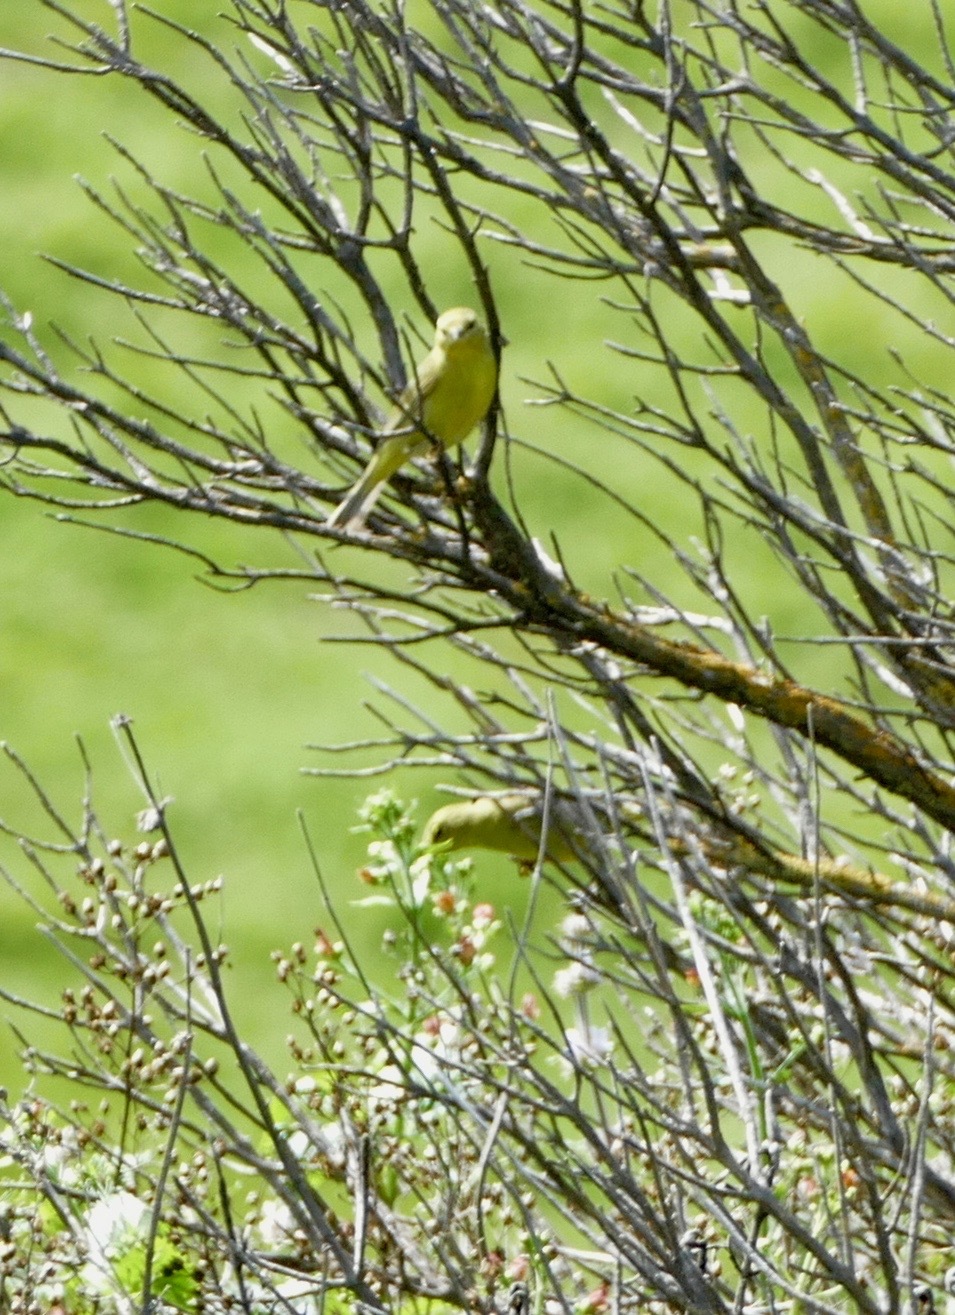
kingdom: Animalia
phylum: Chordata
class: Aves
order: Passeriformes
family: Parulidae
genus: Leiothlypis
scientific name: Leiothlypis celata
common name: Orange-crowned warbler
